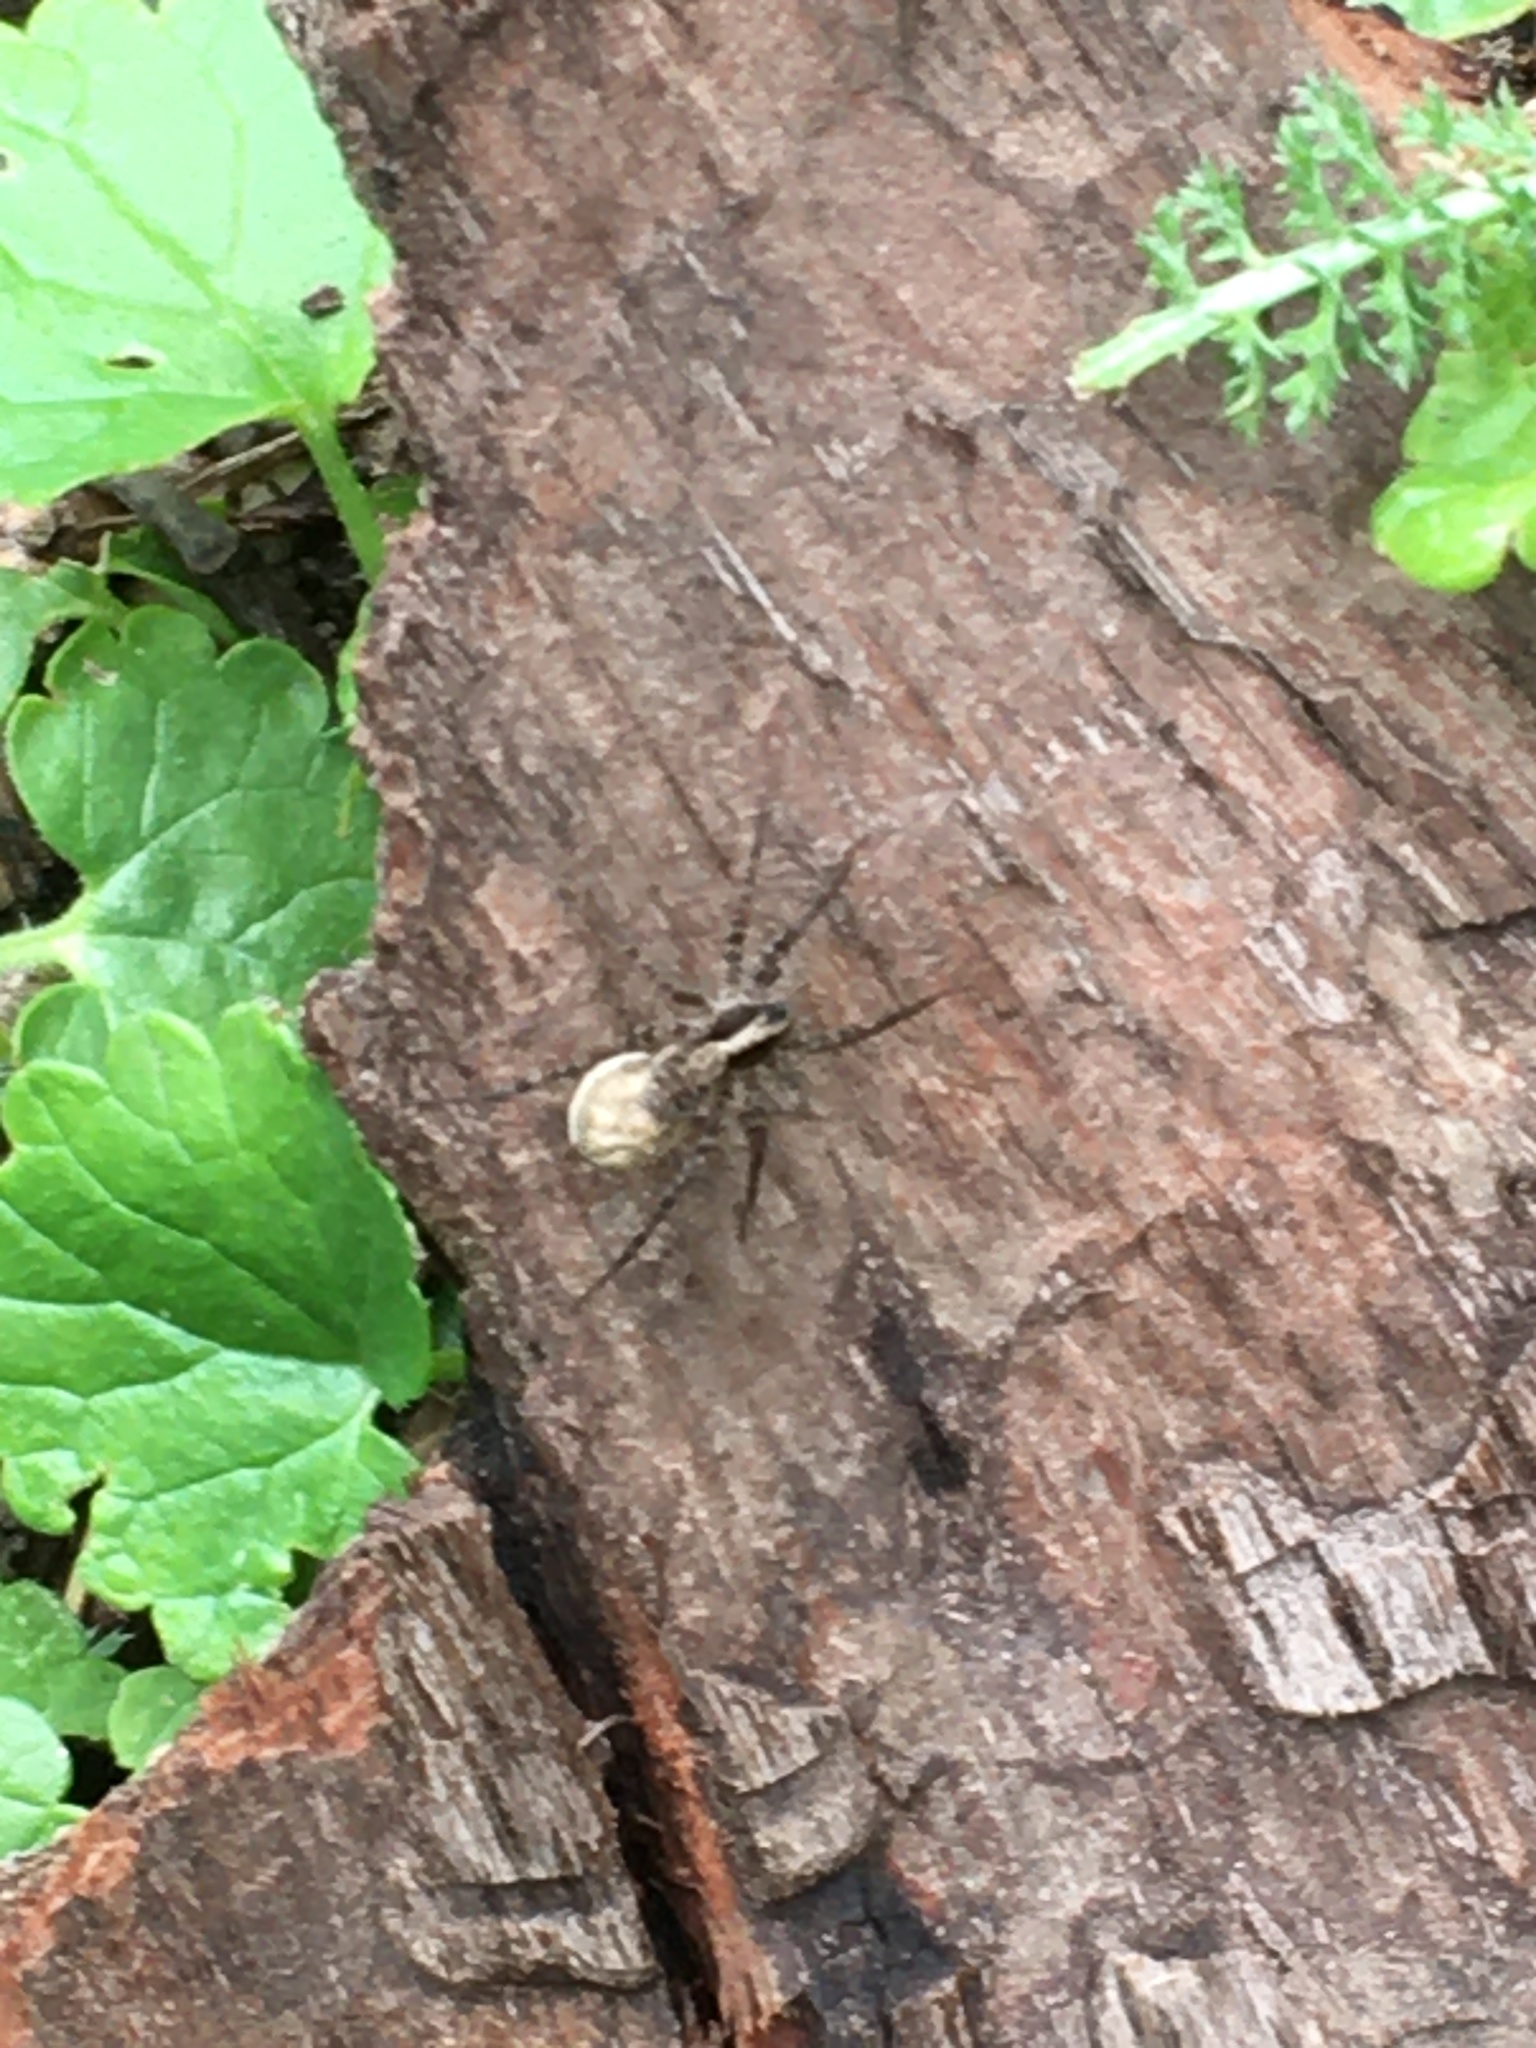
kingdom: Animalia
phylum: Arthropoda
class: Arachnida
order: Araneae
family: Lycosidae
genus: Pardosa
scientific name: Pardosa
